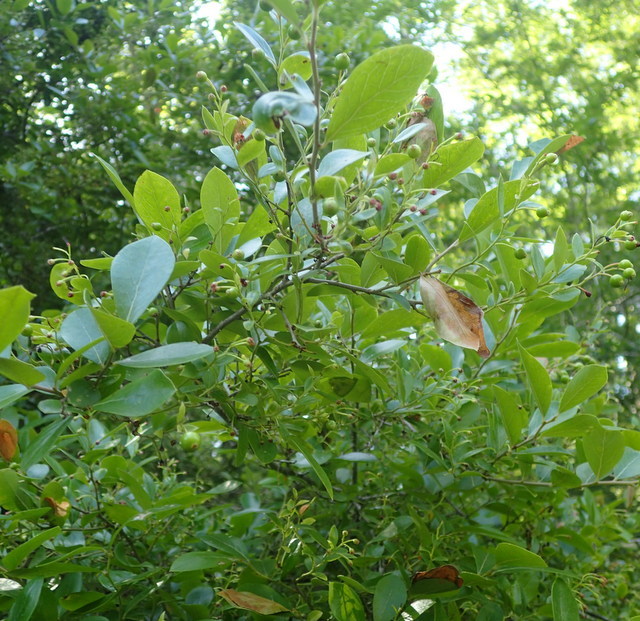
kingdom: Plantae
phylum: Tracheophyta
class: Magnoliopsida
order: Ericales
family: Ericaceae
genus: Vaccinium
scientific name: Vaccinium arboreum
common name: Farkleberry
